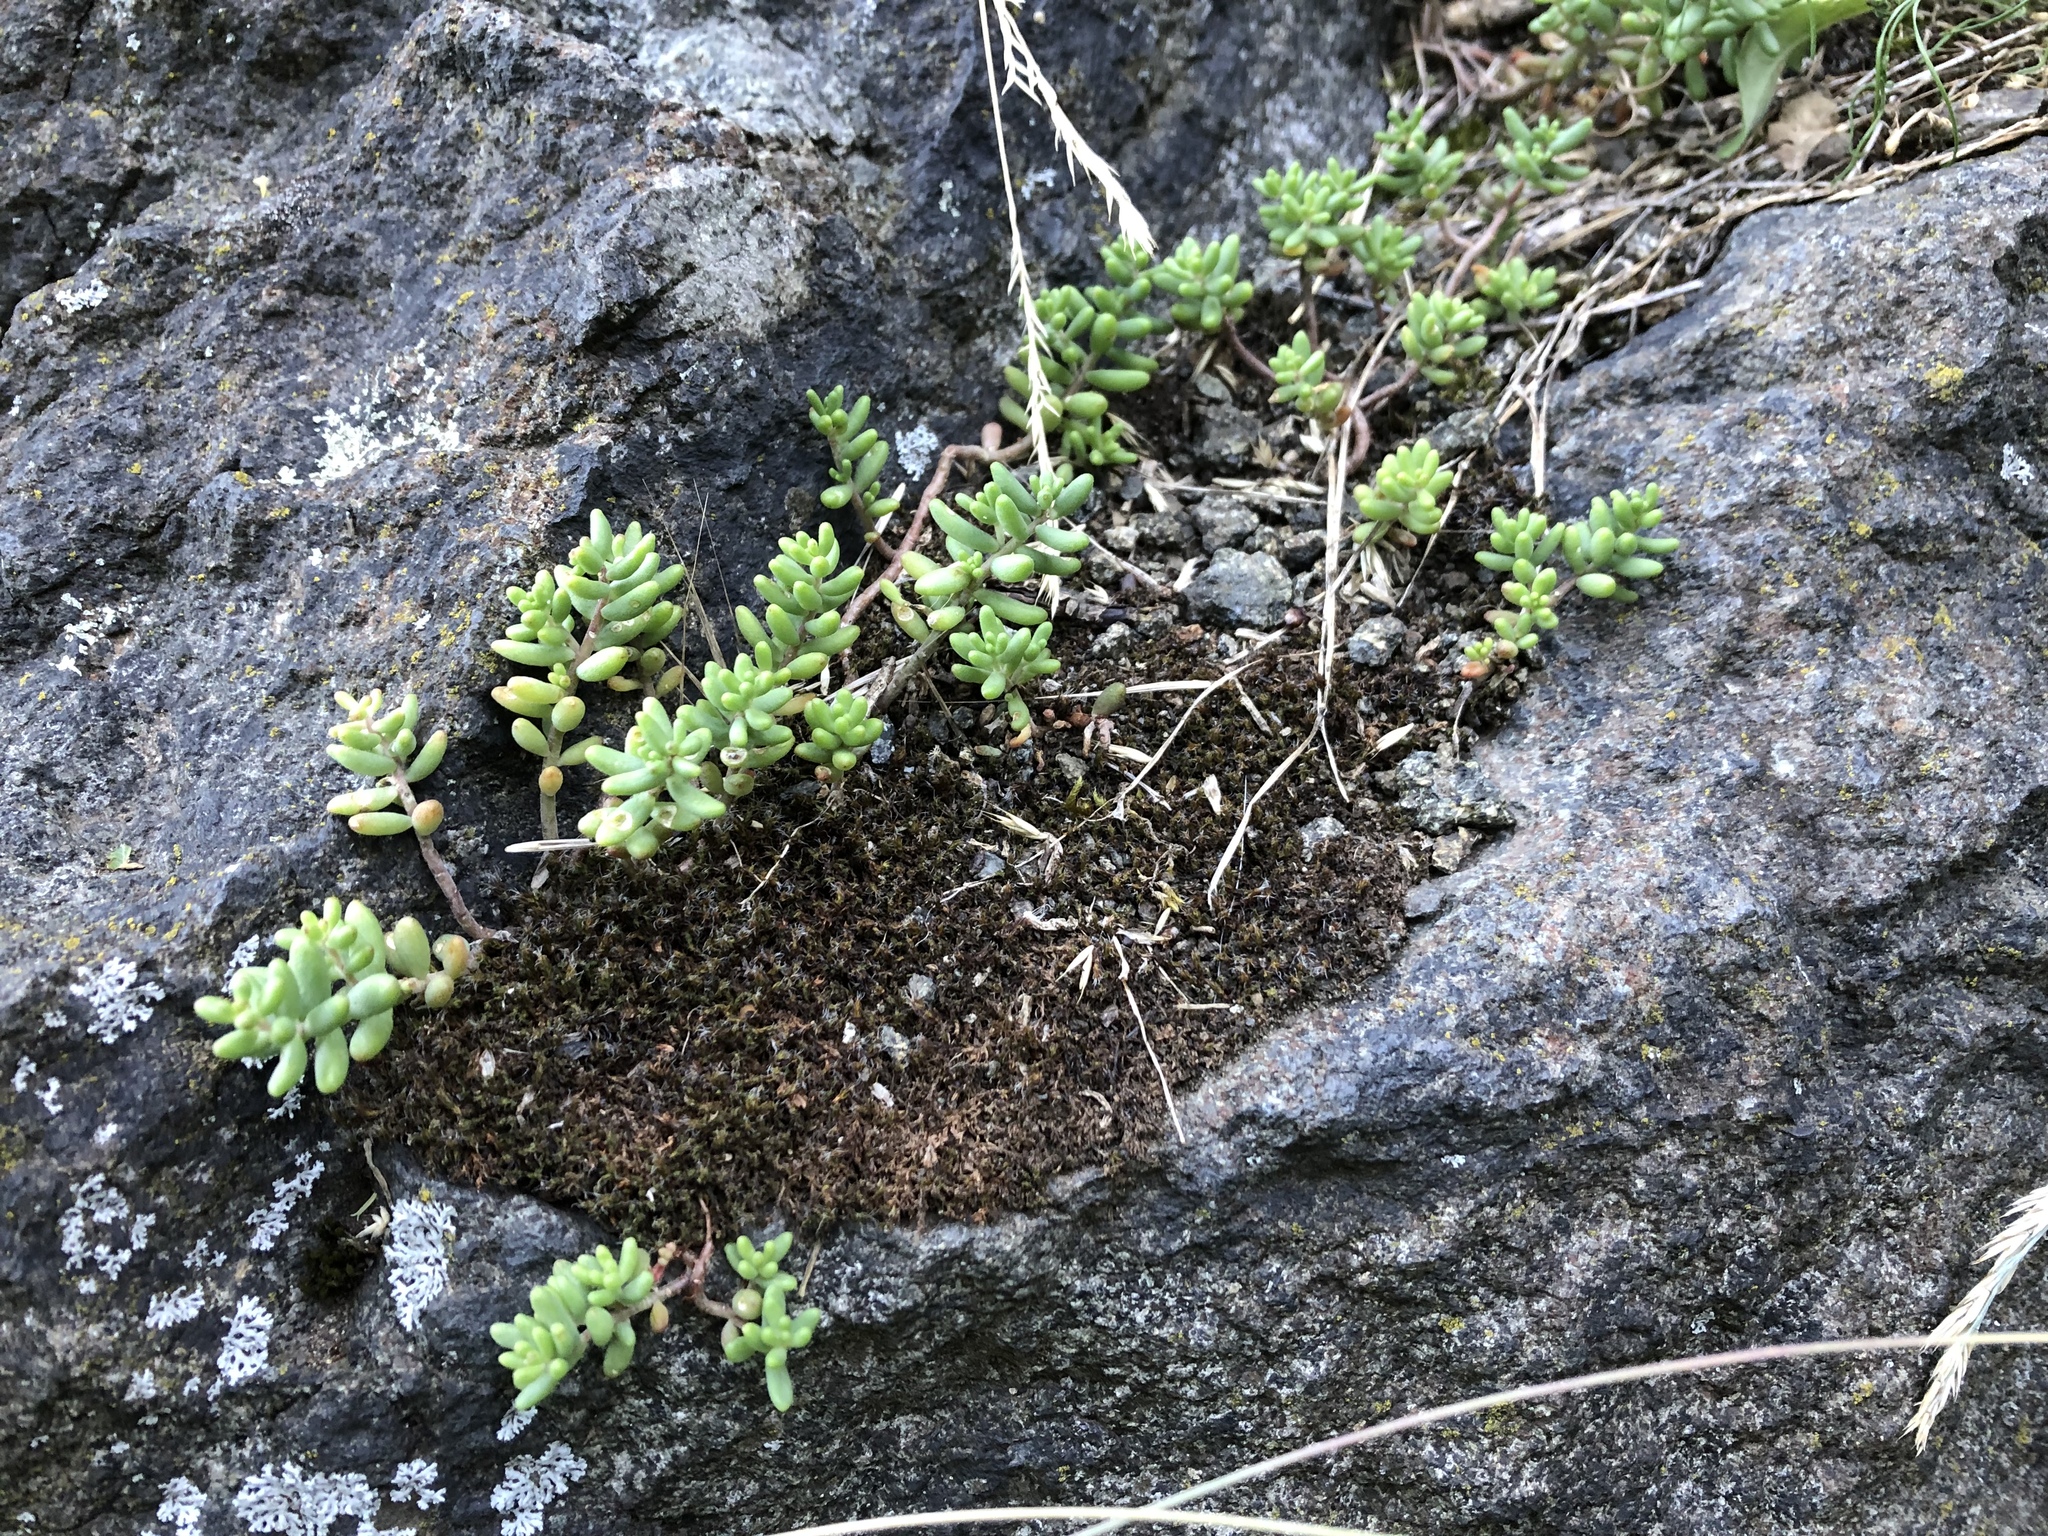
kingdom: Plantae
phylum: Tracheophyta
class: Magnoliopsida
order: Saxifragales
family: Crassulaceae
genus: Sedum
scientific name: Sedum album
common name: White stonecrop
